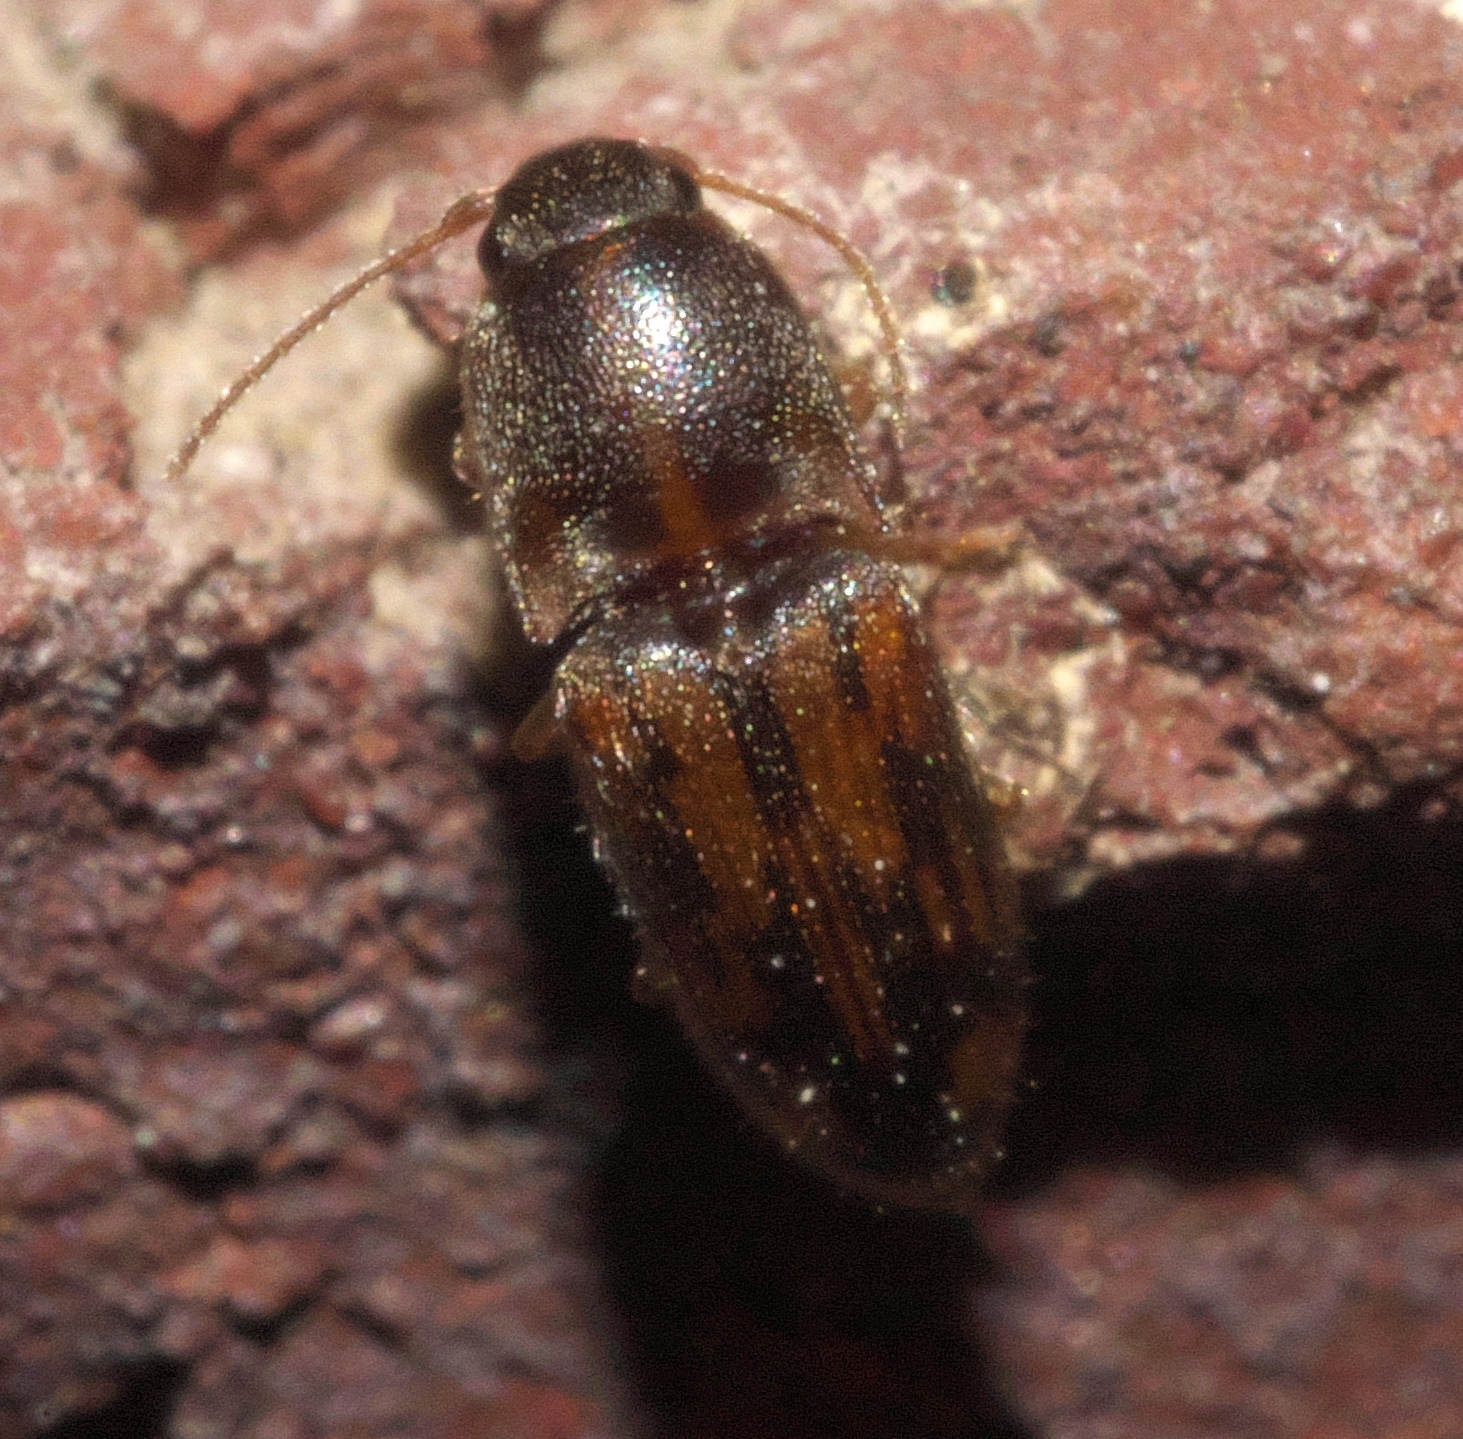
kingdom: Animalia
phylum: Arthropoda
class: Insecta
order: Coleoptera
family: Elateridae
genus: Monocrepidius
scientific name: Monocrepidius bellus
